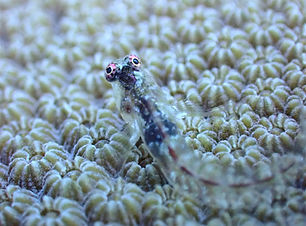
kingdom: Animalia
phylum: Chordata
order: Perciformes
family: Chaenopsidae
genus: Emblemariopsis
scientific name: Emblemariopsis bottomei
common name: Shorthead blenny
